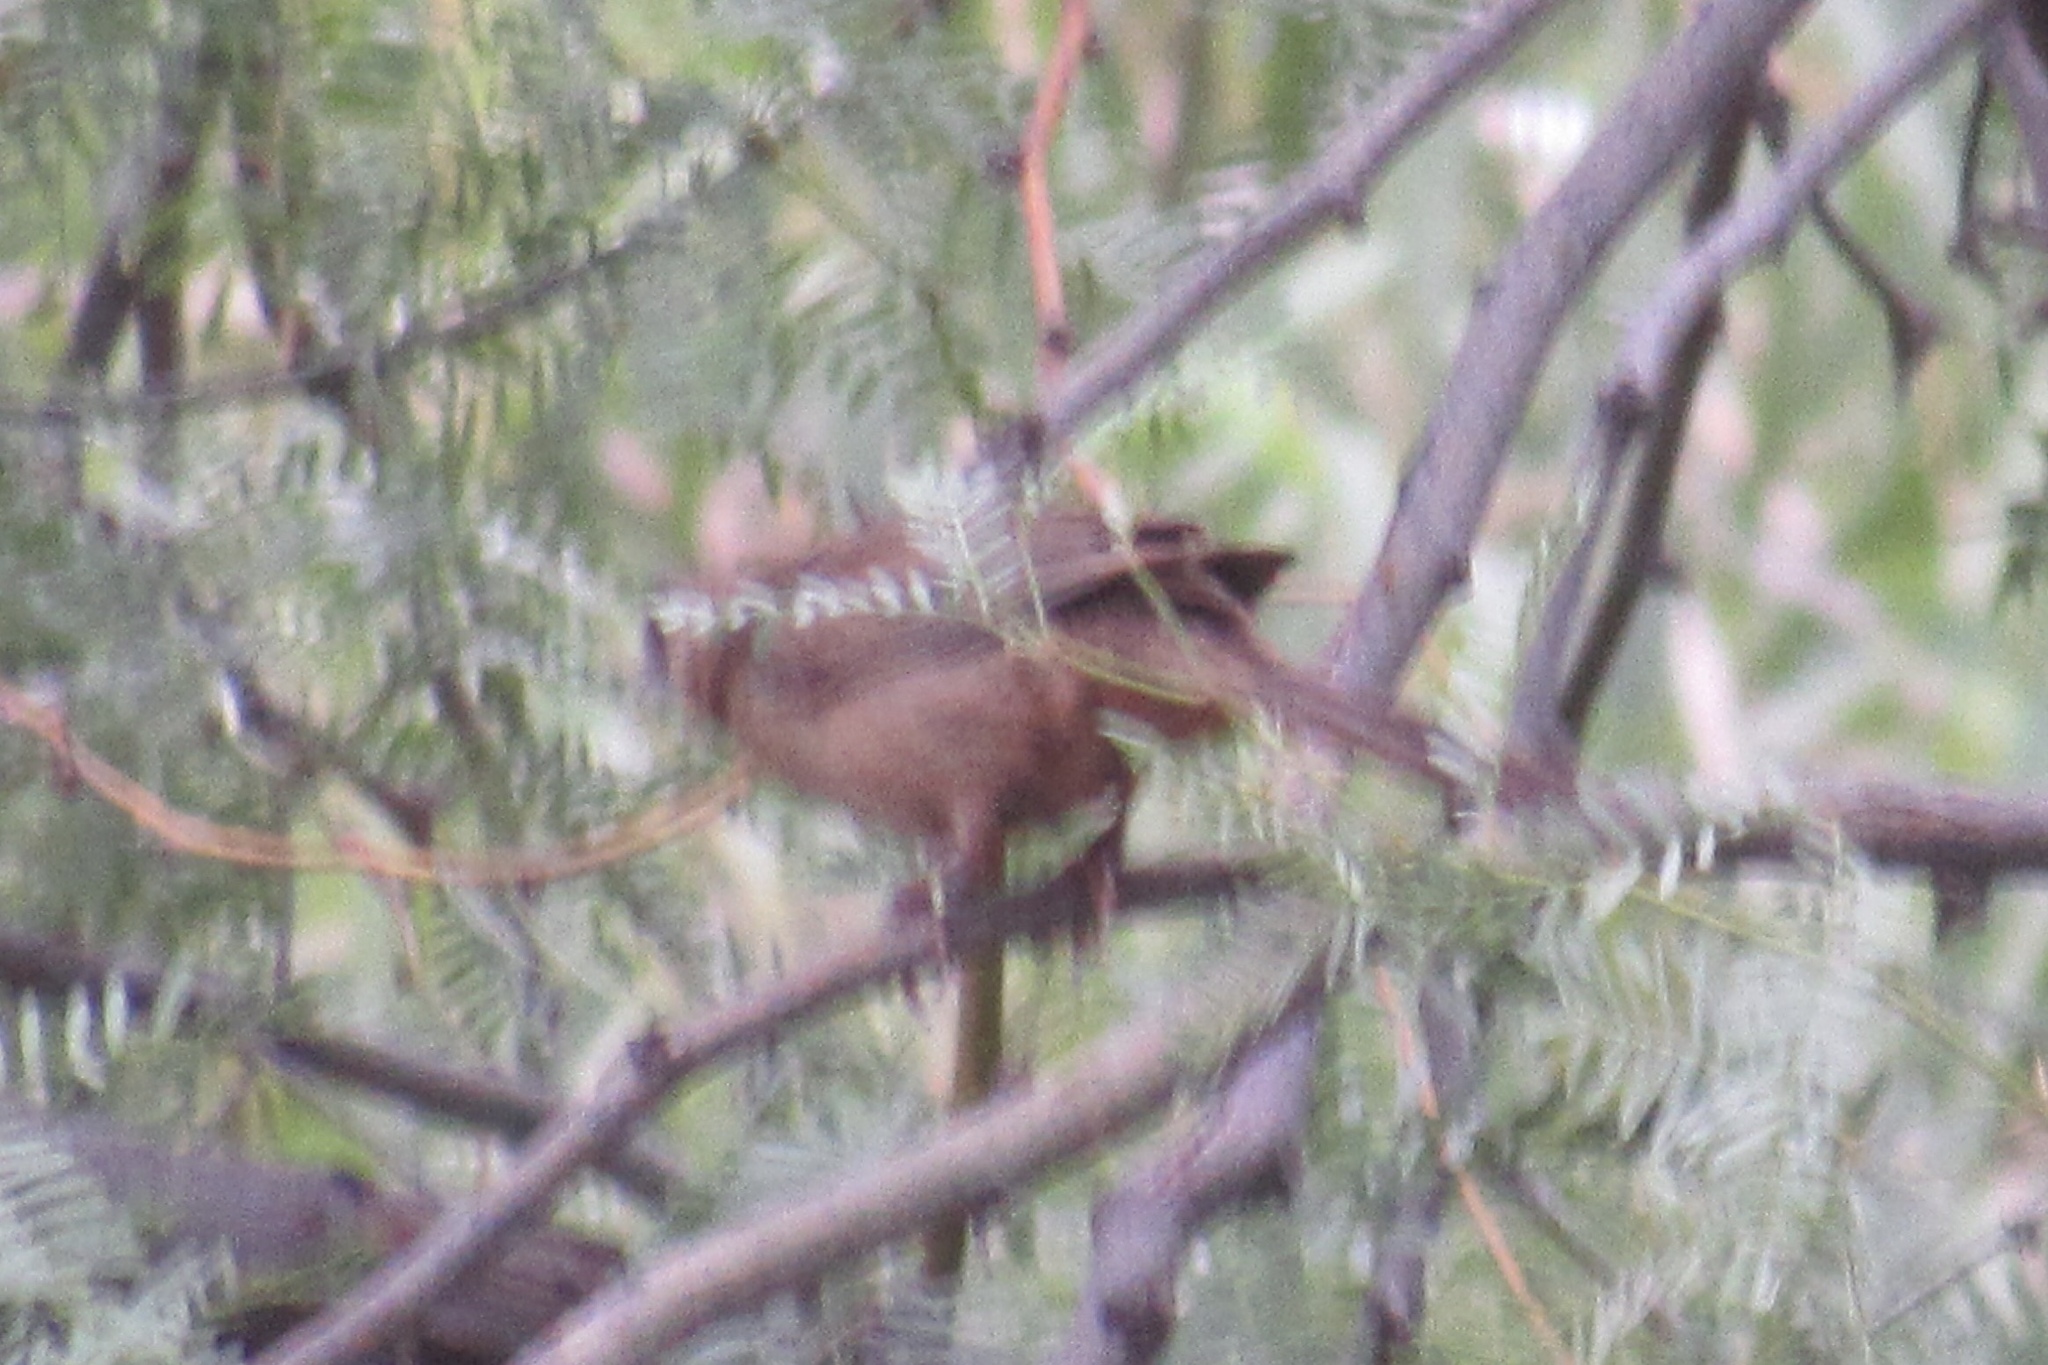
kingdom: Animalia
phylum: Chordata
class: Aves
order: Passeriformes
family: Passerellidae
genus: Melozone
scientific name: Melozone aberti
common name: Abert's towhee
